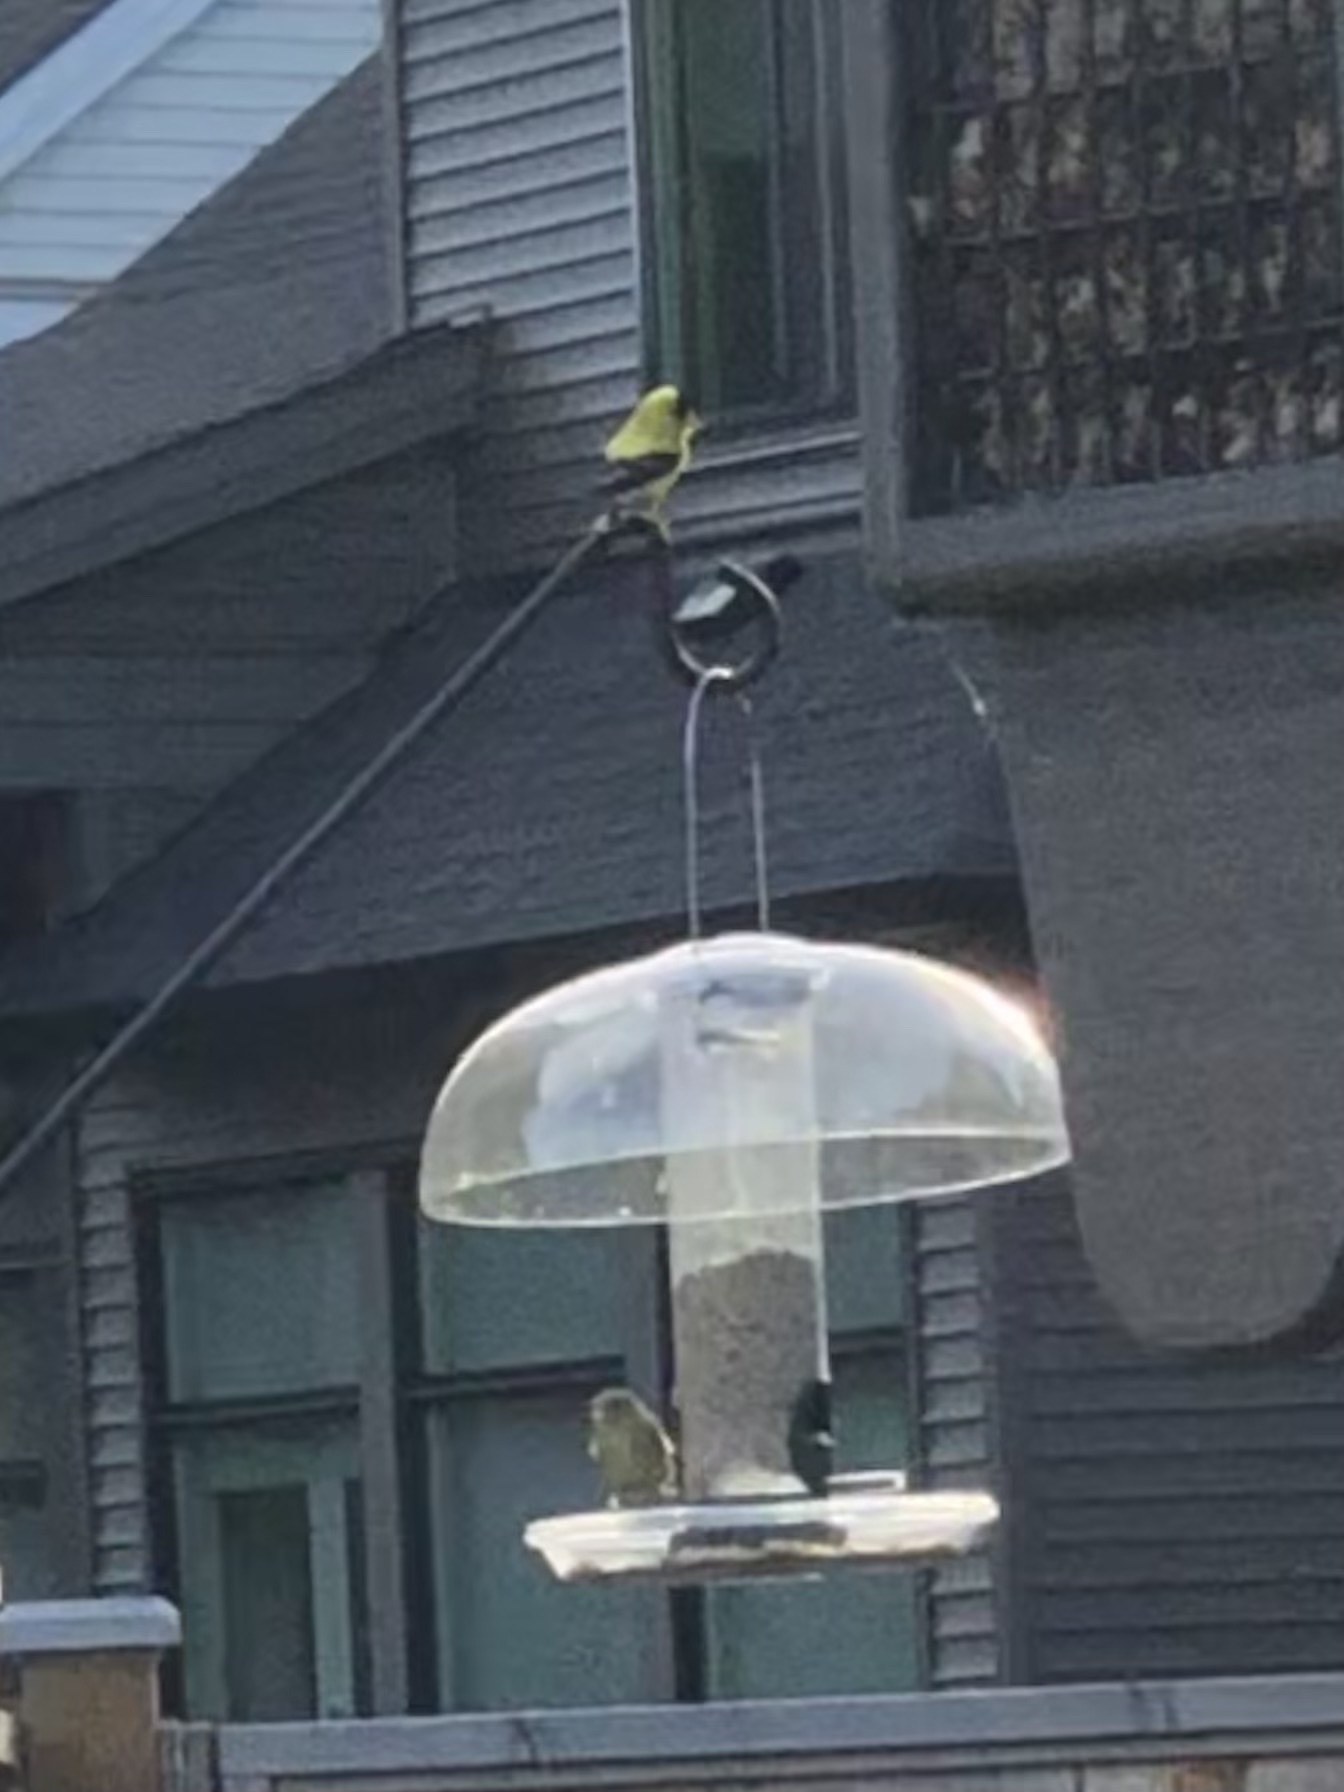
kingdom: Animalia
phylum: Chordata
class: Aves
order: Passeriformes
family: Fringillidae
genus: Spinus
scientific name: Spinus tristis
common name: American goldfinch
